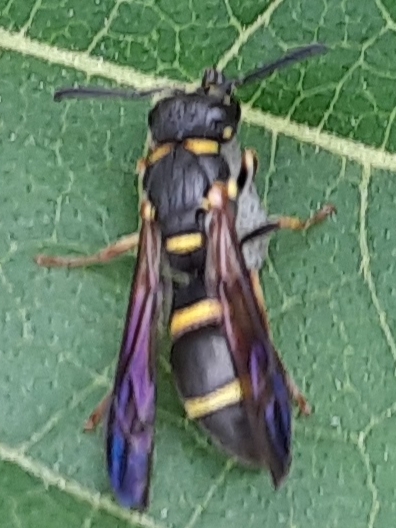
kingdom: Animalia
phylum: Arthropoda
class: Insecta
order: Hymenoptera
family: Eumenidae
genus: Parancistrocerus
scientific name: Parancistrocerus perennis
